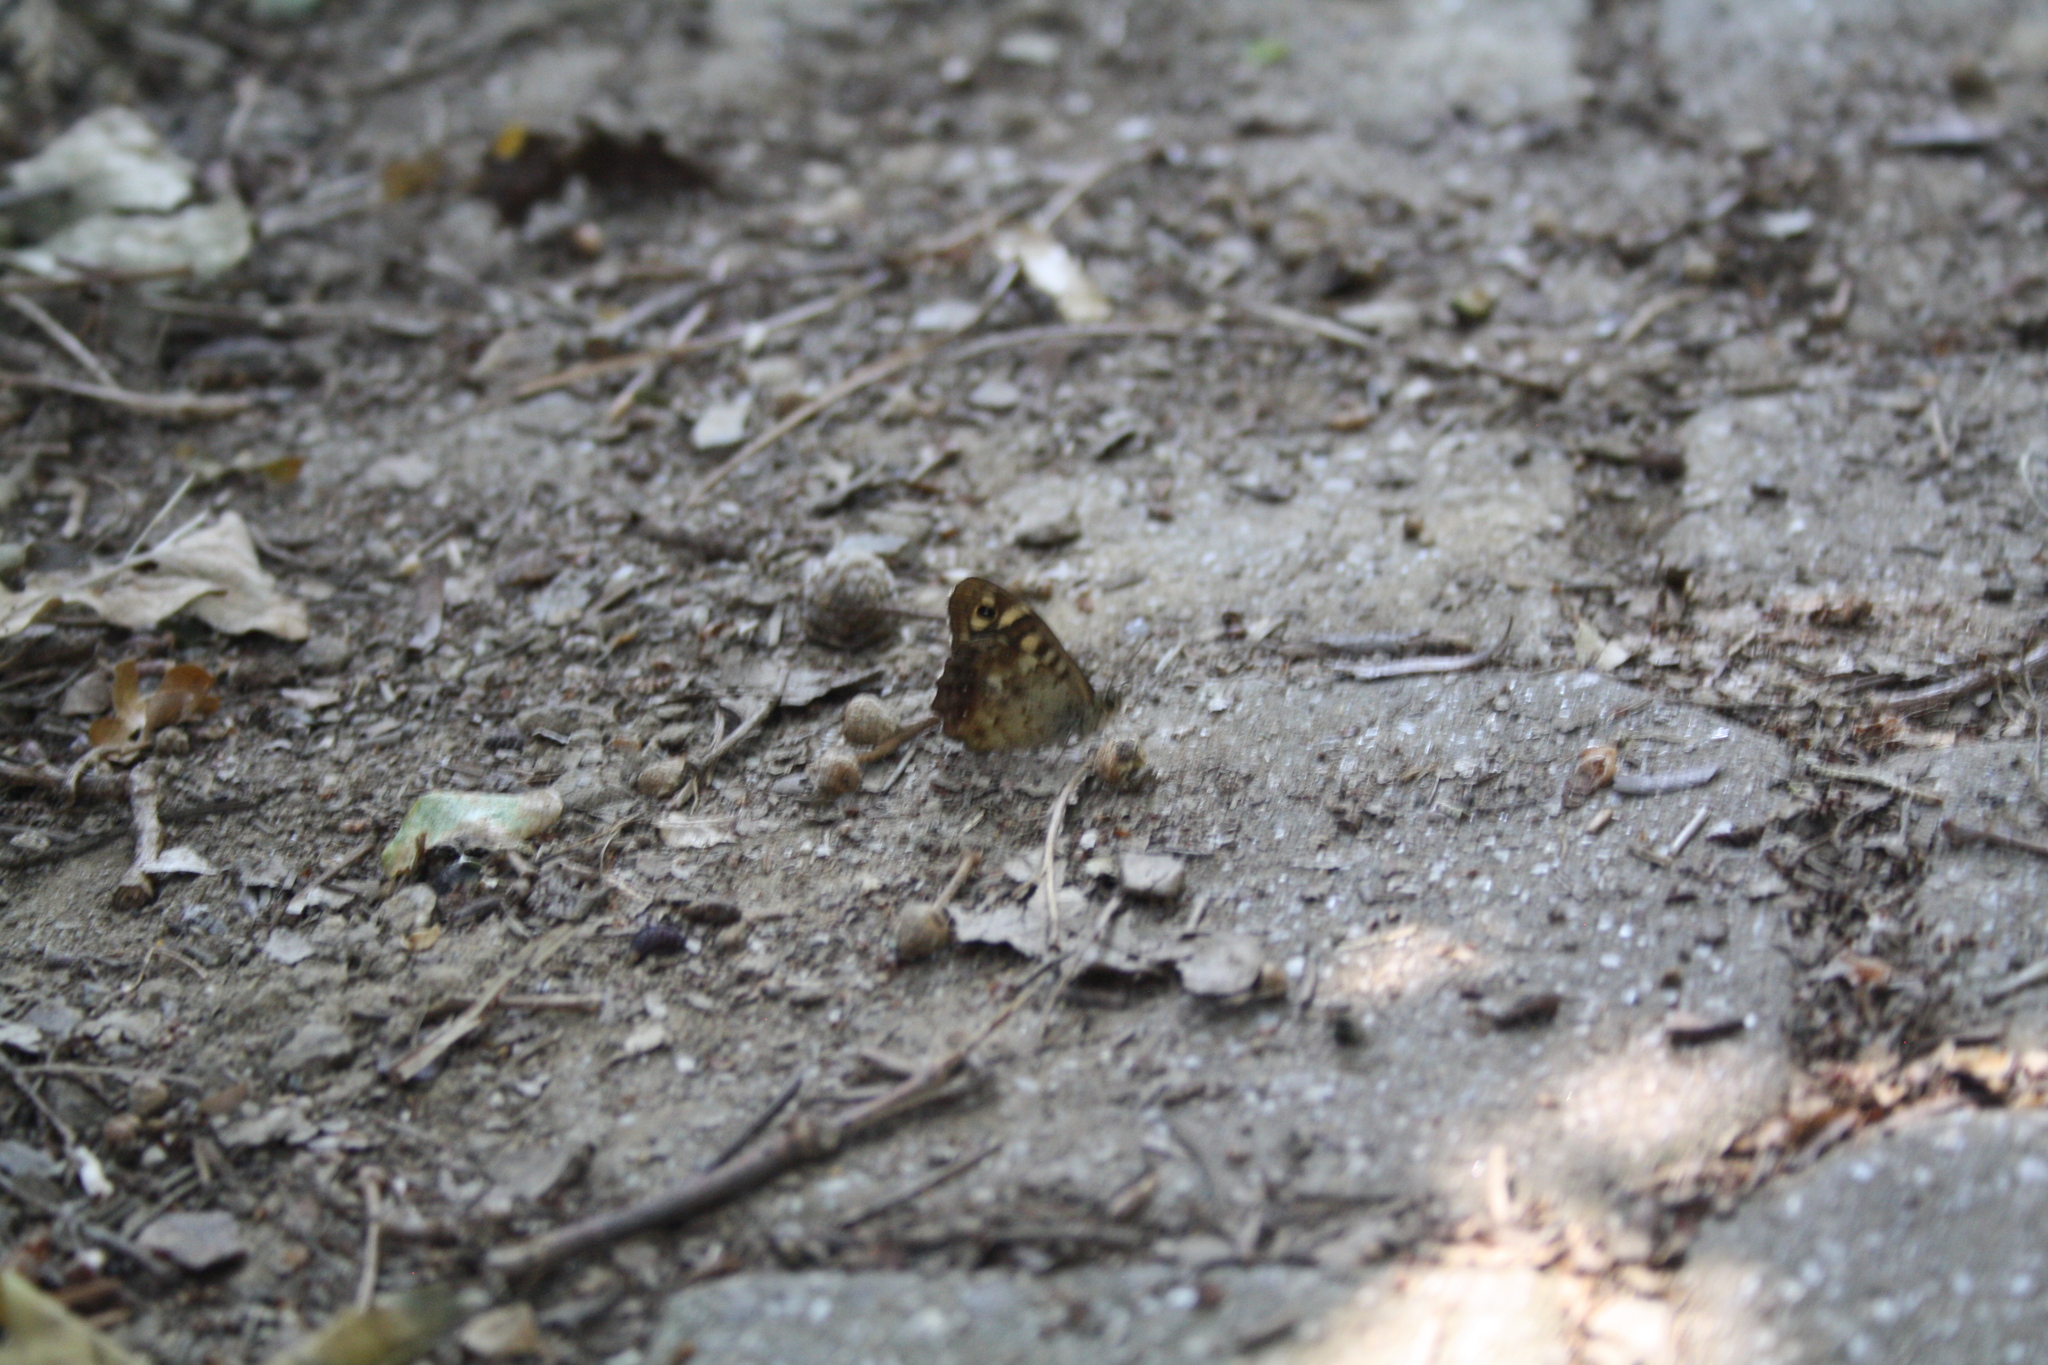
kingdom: Animalia
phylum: Arthropoda
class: Insecta
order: Lepidoptera
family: Nymphalidae
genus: Pararge
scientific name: Pararge aegeria
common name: Speckled wood
